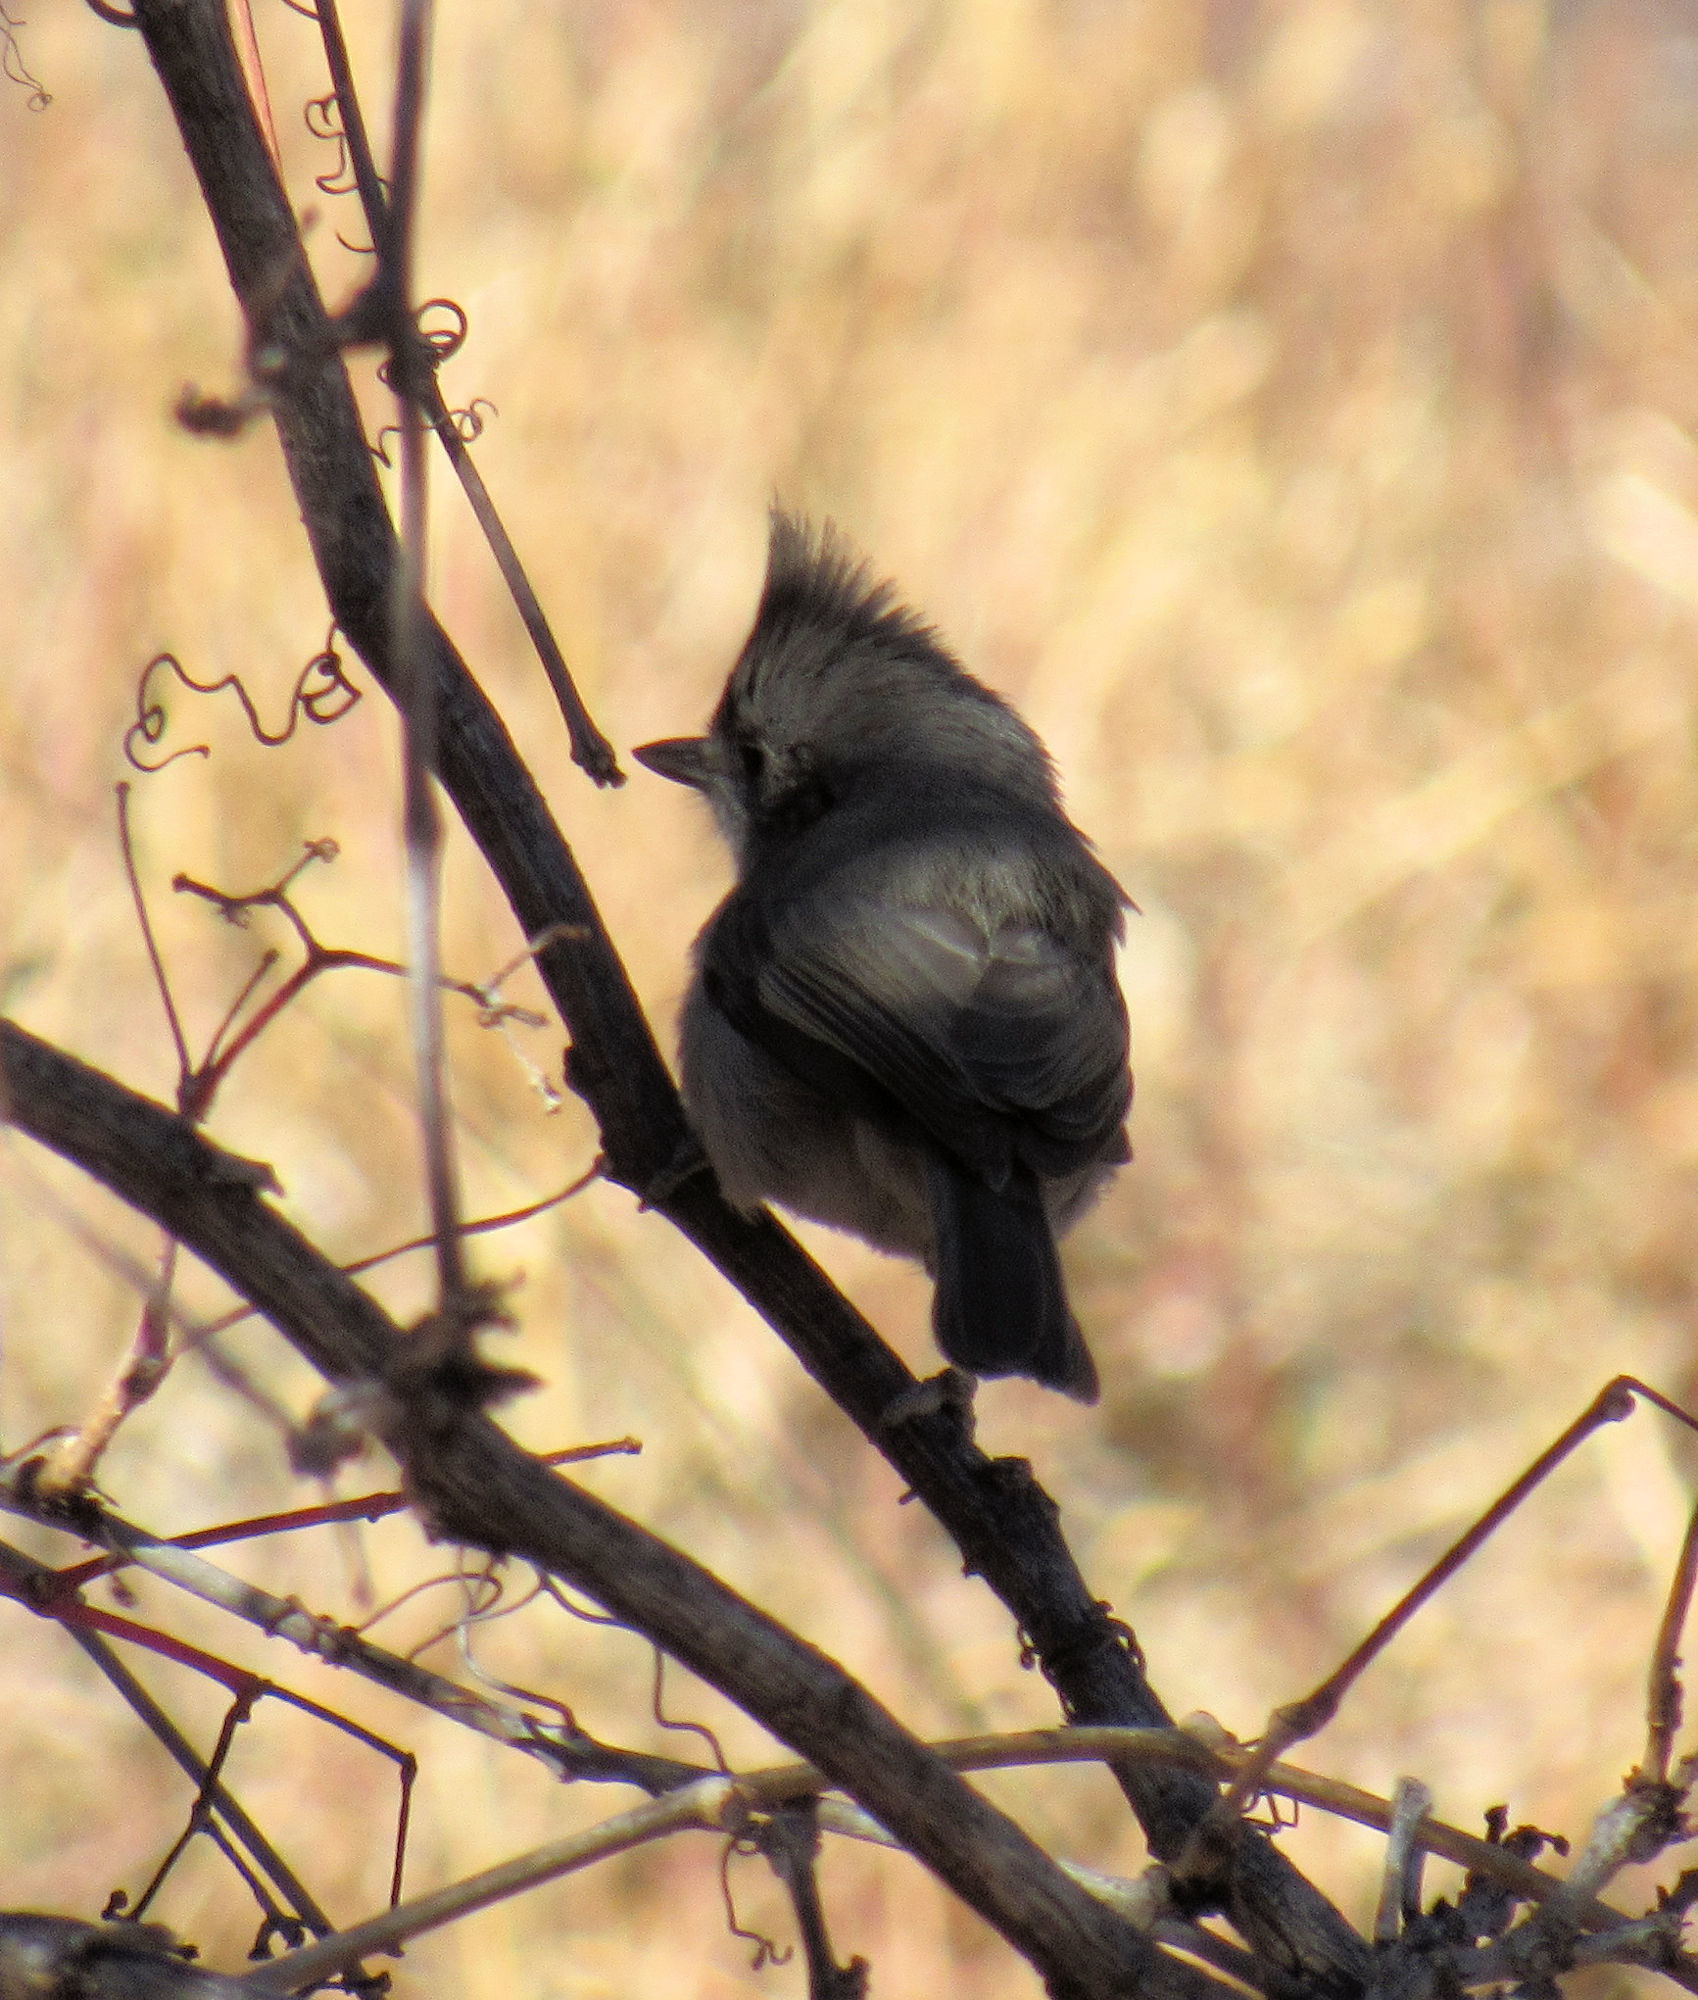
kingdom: Animalia
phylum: Chordata
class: Aves
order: Passeriformes
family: Paridae
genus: Baeolophus
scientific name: Baeolophus ridgwayi
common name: Juniper titmouse
